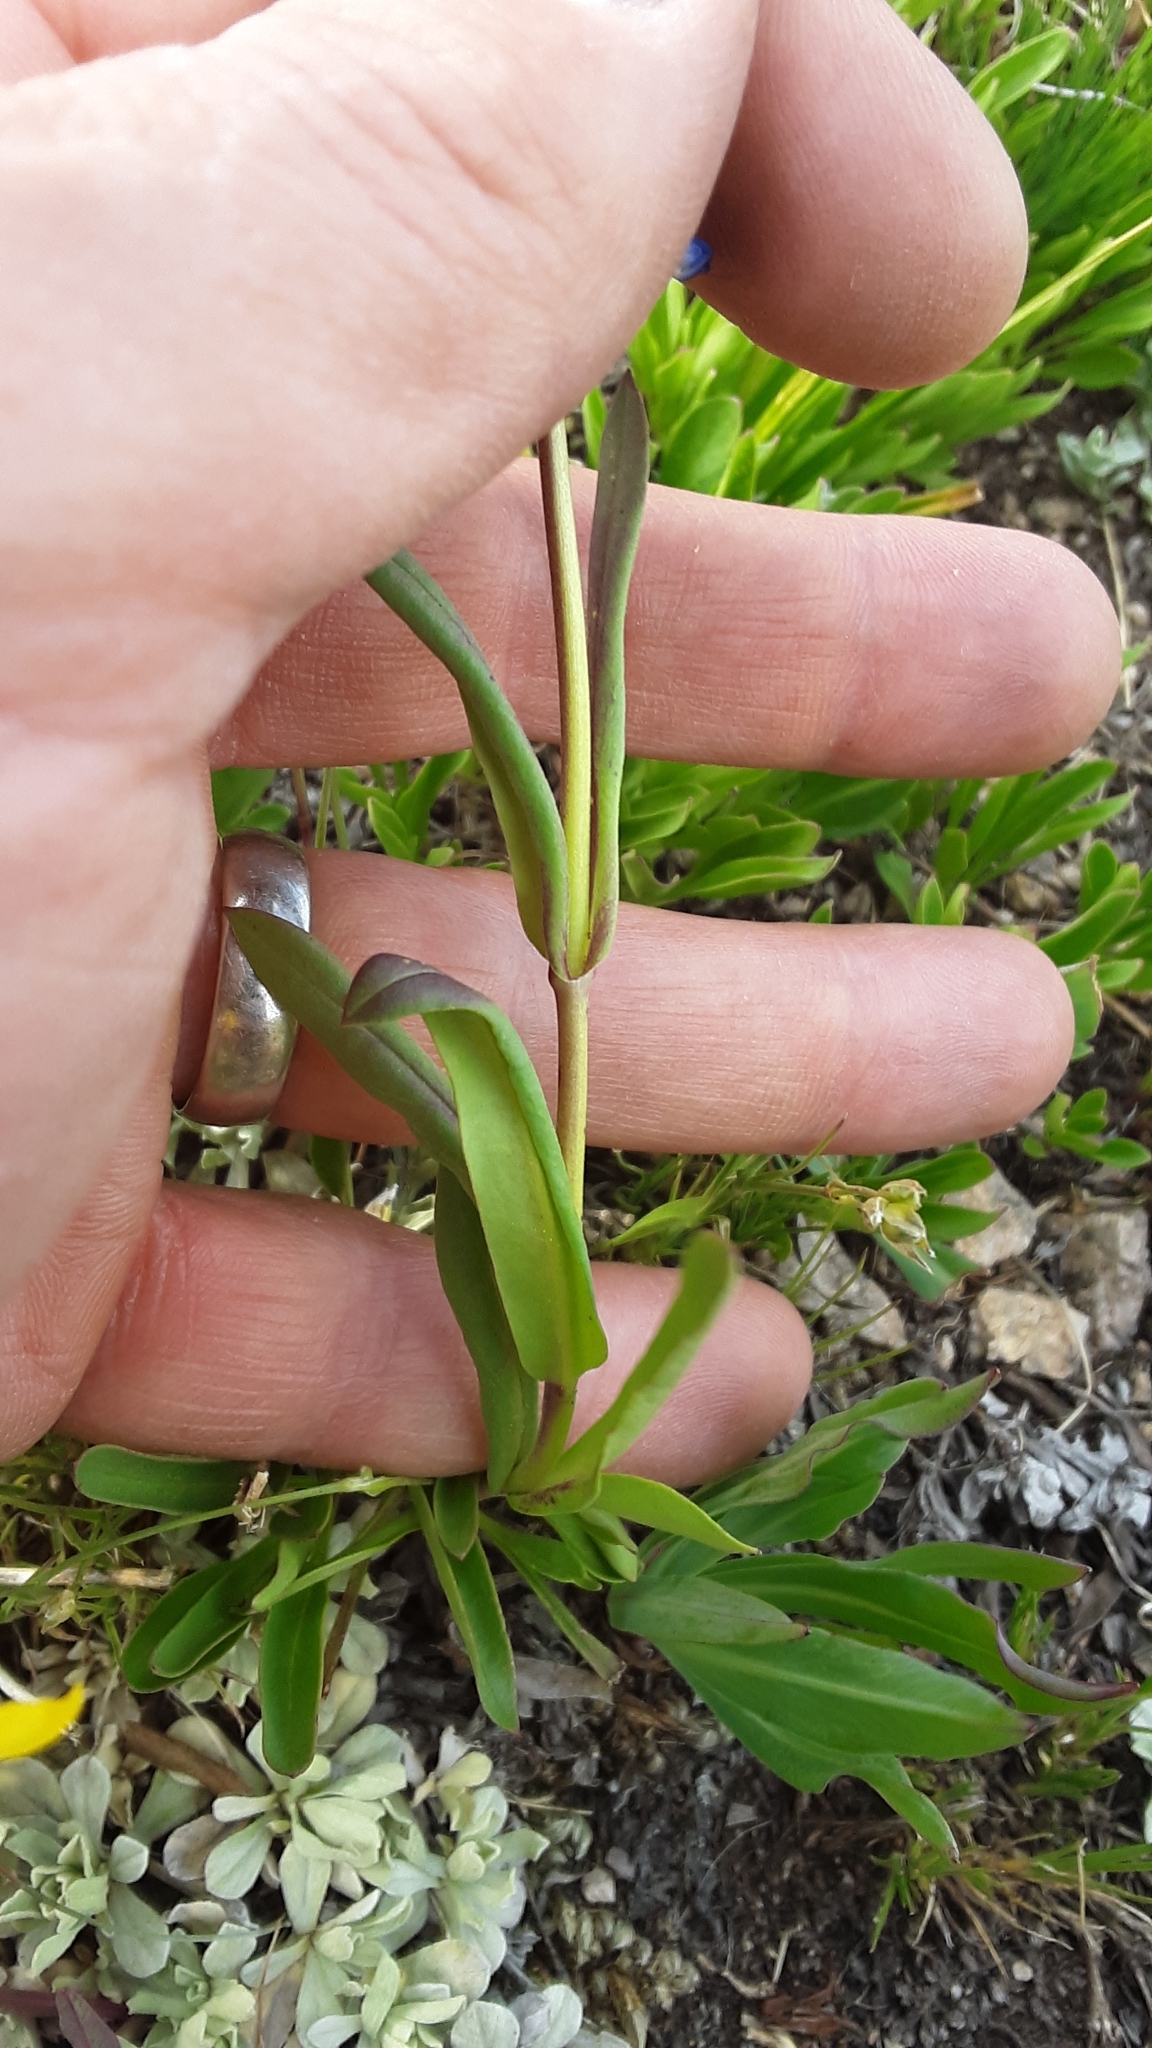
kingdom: Plantae
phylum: Tracheophyta
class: Magnoliopsida
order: Lamiales
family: Plantaginaceae
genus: Penstemon
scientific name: Penstemon procerus
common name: Small-flower penstemon
